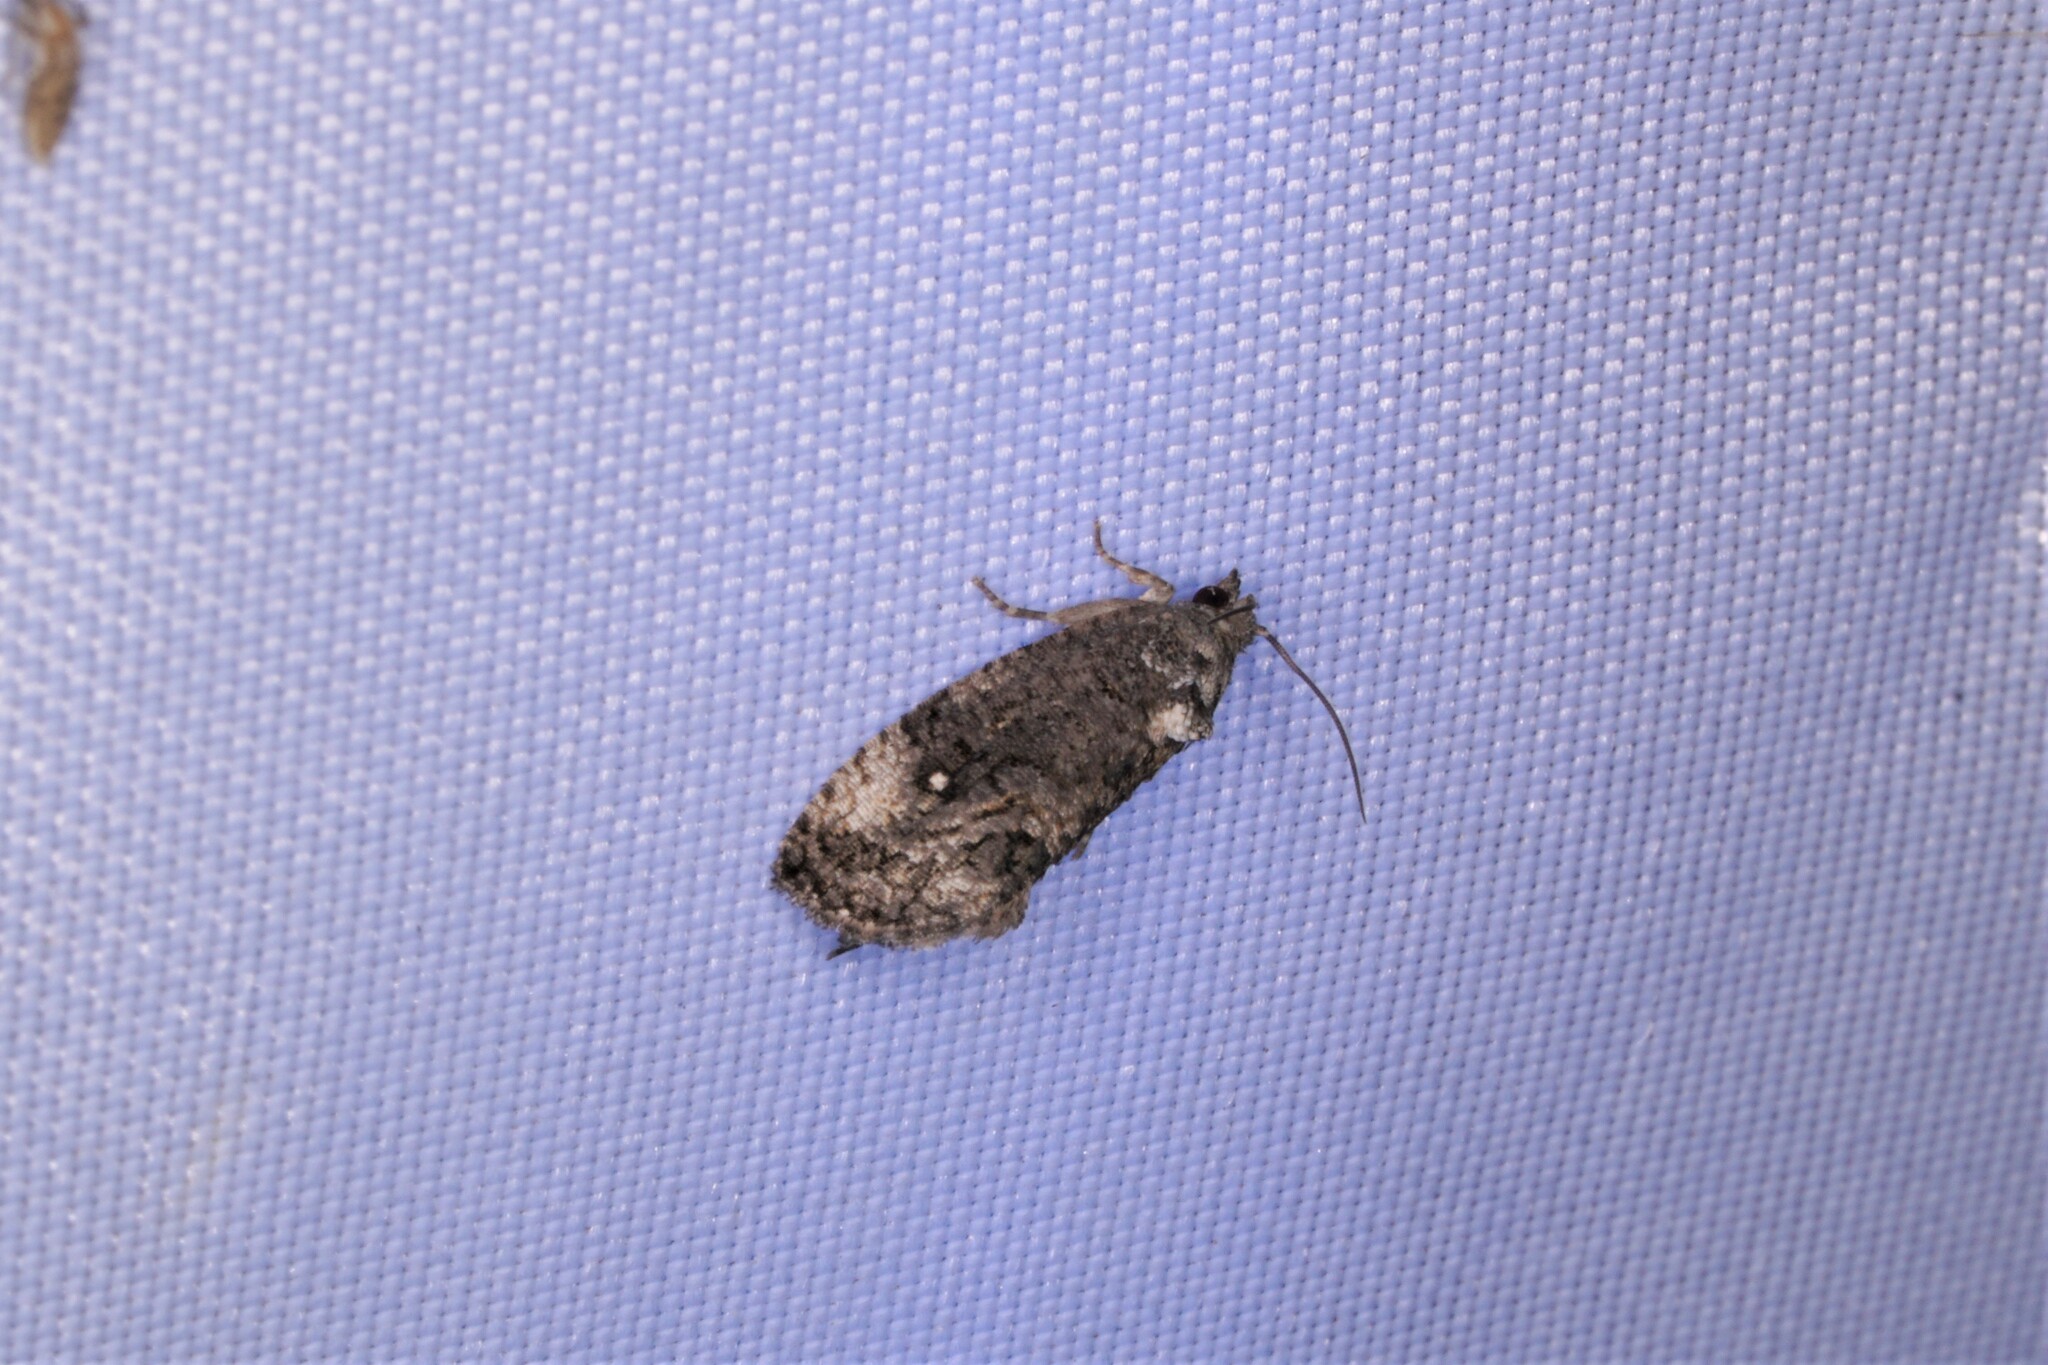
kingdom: Animalia
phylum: Arthropoda
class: Insecta
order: Lepidoptera
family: Tortricidae
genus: Gymnandrosoma
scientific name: Gymnandrosoma punctidiscanum
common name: Dotted ecdytolopha moth
